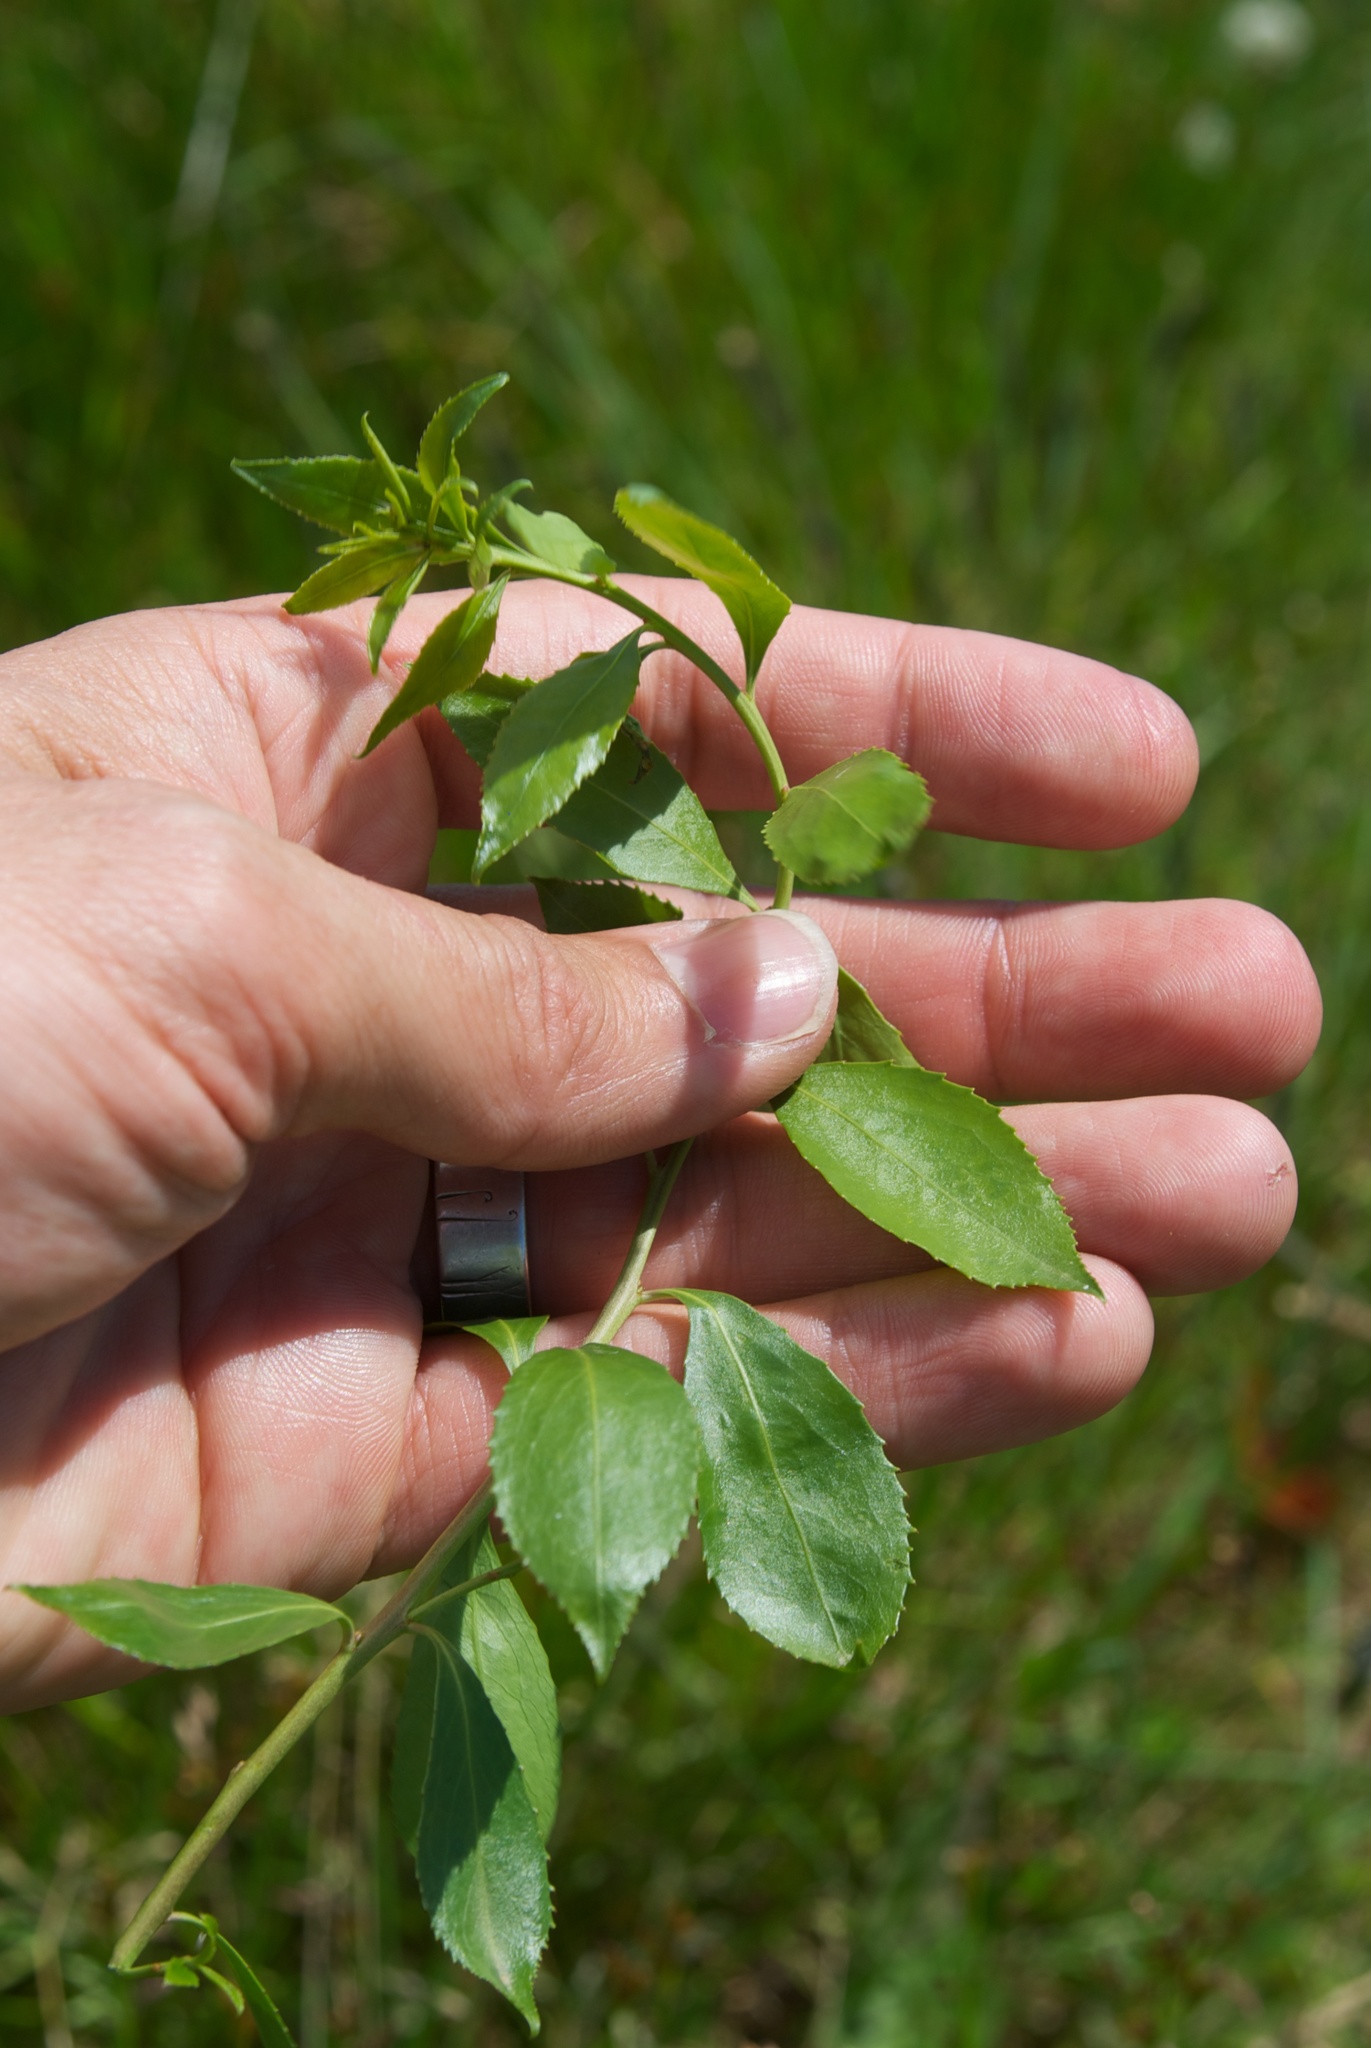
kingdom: Plantae
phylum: Tracheophyta
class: Magnoliopsida
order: Celastrales
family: Celastraceae
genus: Maytenus
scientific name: Maytenus boaria
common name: Mayten
